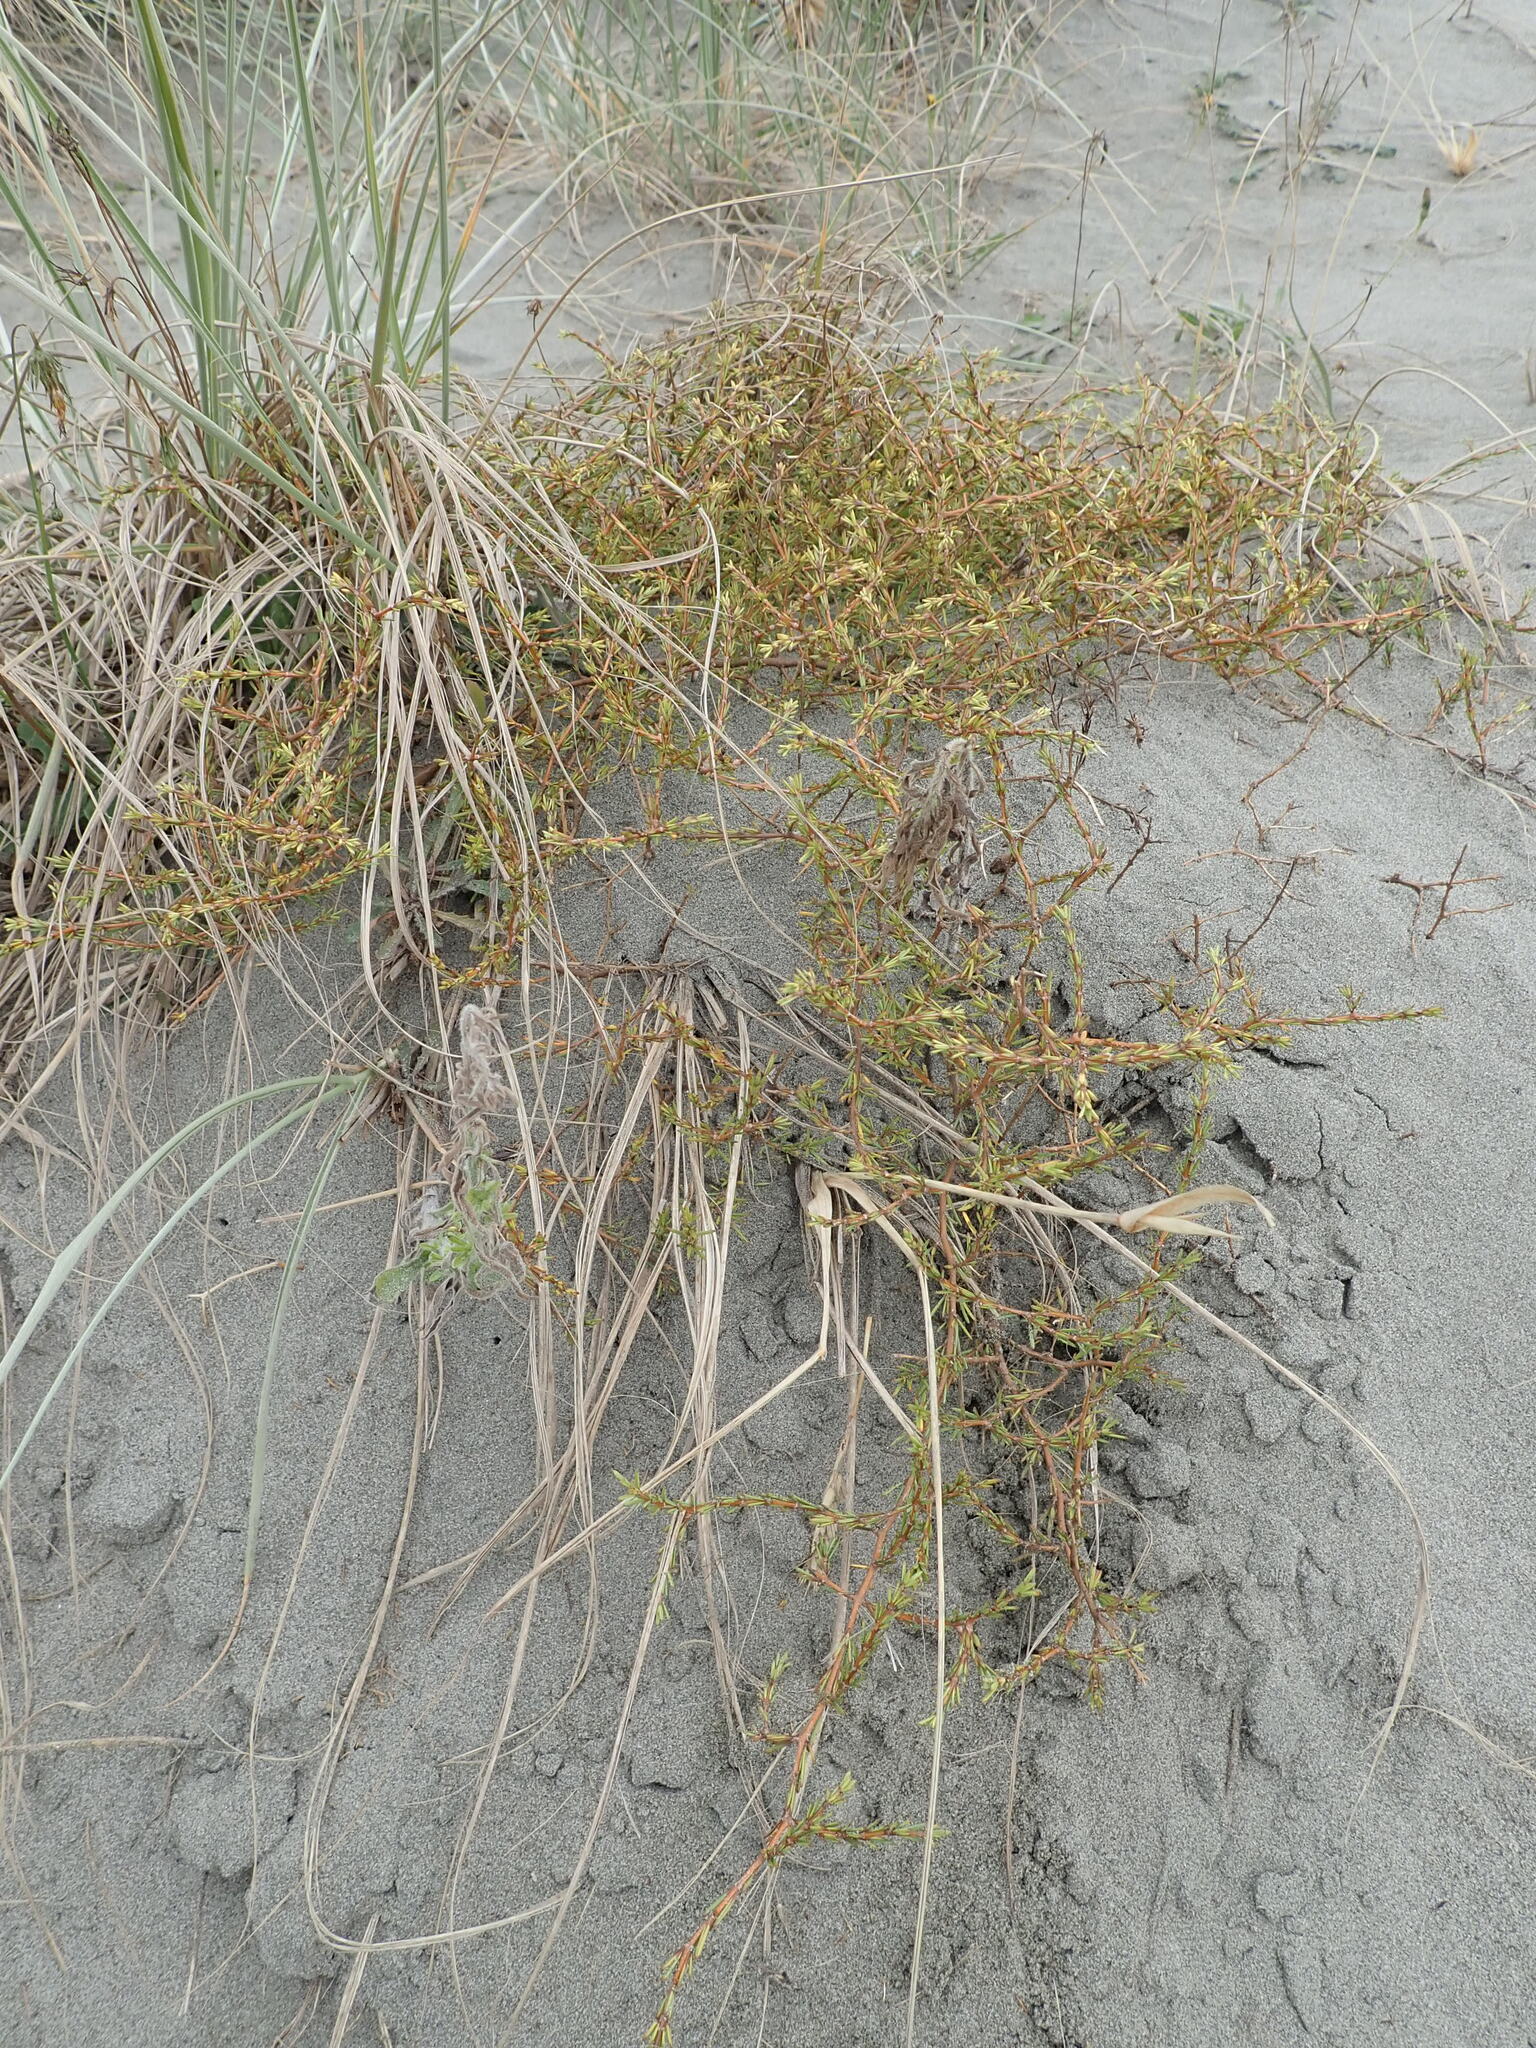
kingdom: Plantae
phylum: Tracheophyta
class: Magnoliopsida
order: Gentianales
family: Rubiaceae
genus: Coprosma
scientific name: Coprosma acerosa
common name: Sand coprosma
